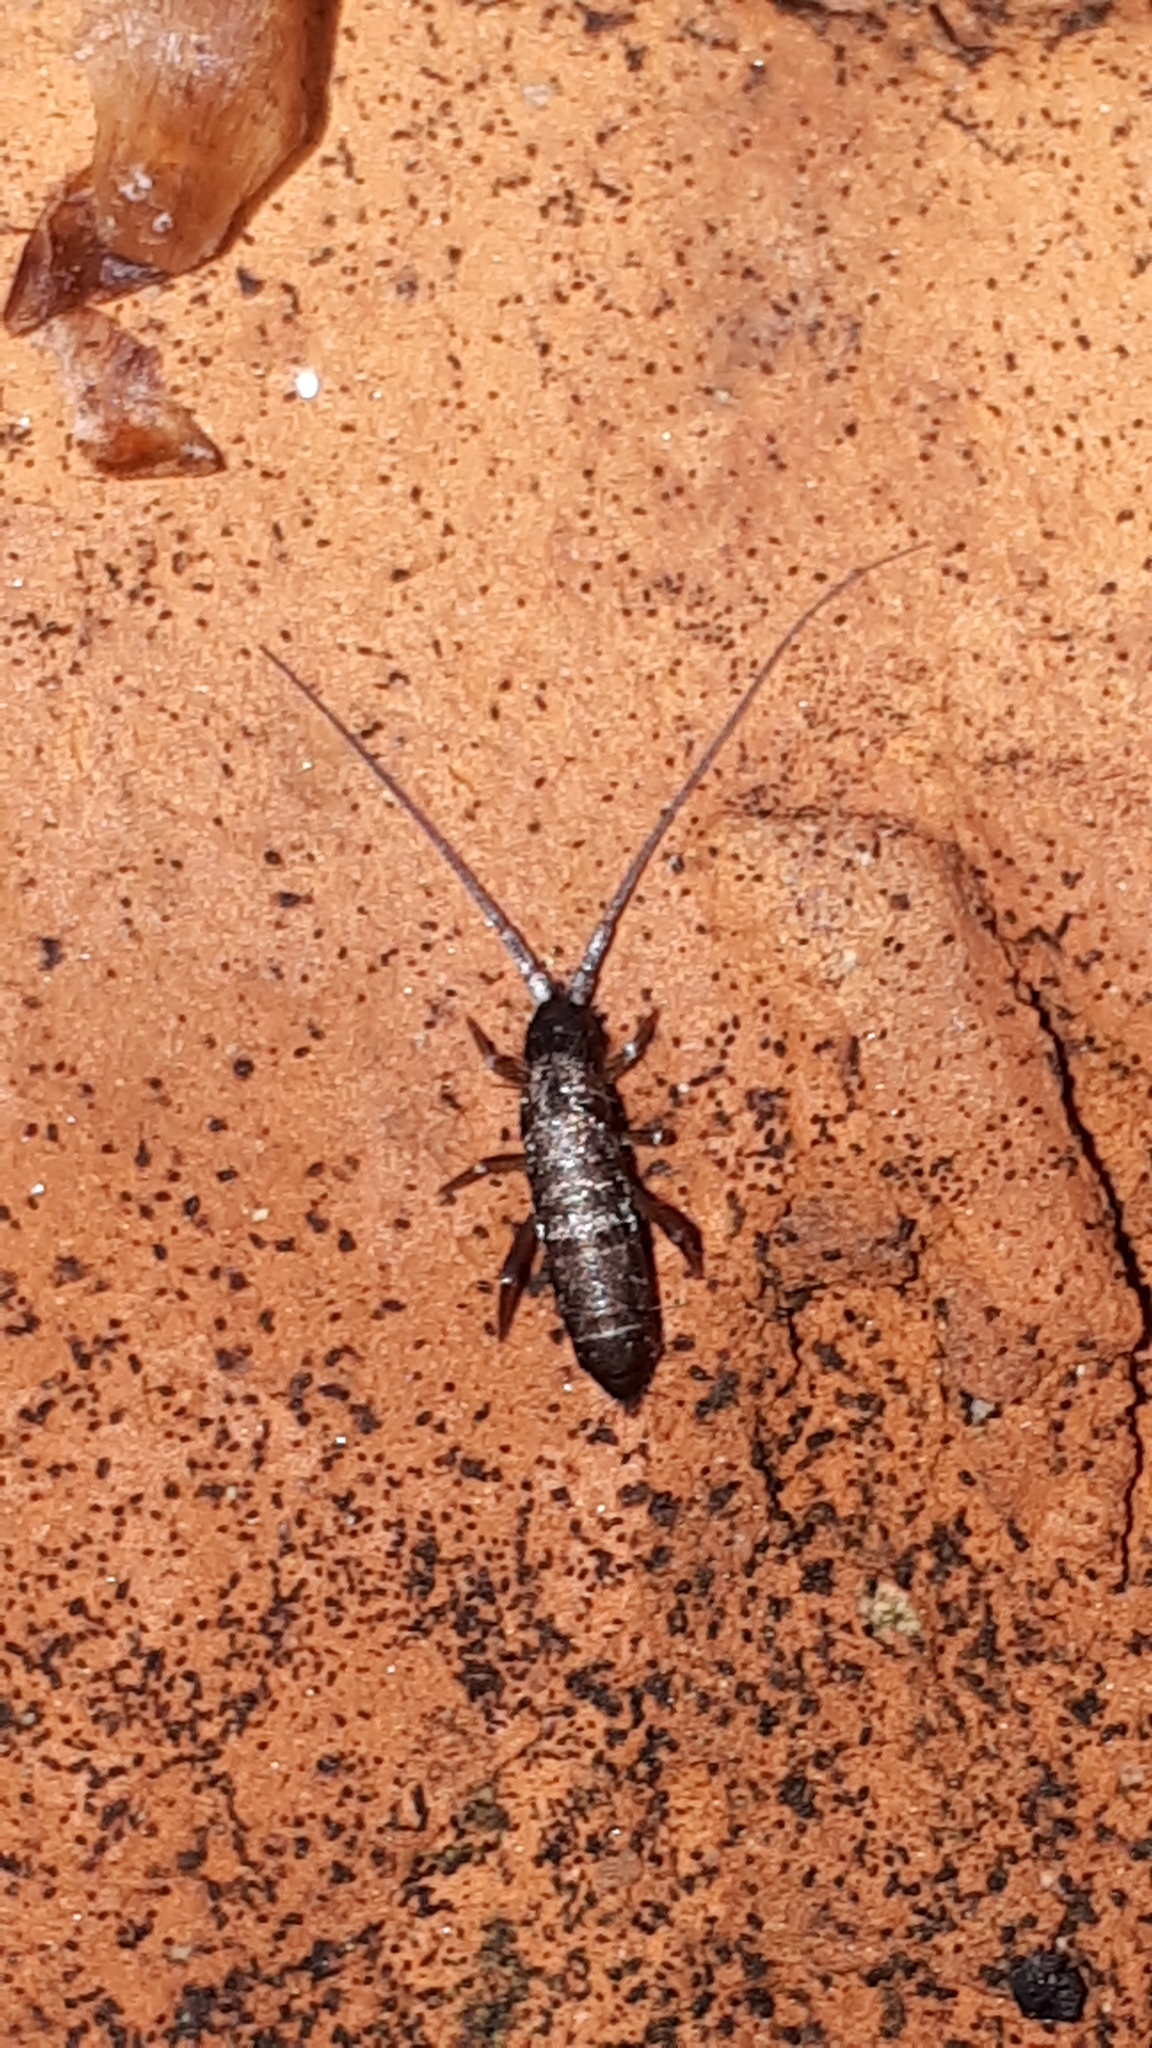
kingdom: Animalia
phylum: Arthropoda
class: Collembola
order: Entomobryomorpha
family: Tomoceridae
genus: Pogonognathellus
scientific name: Pogonognathellus longicornis
